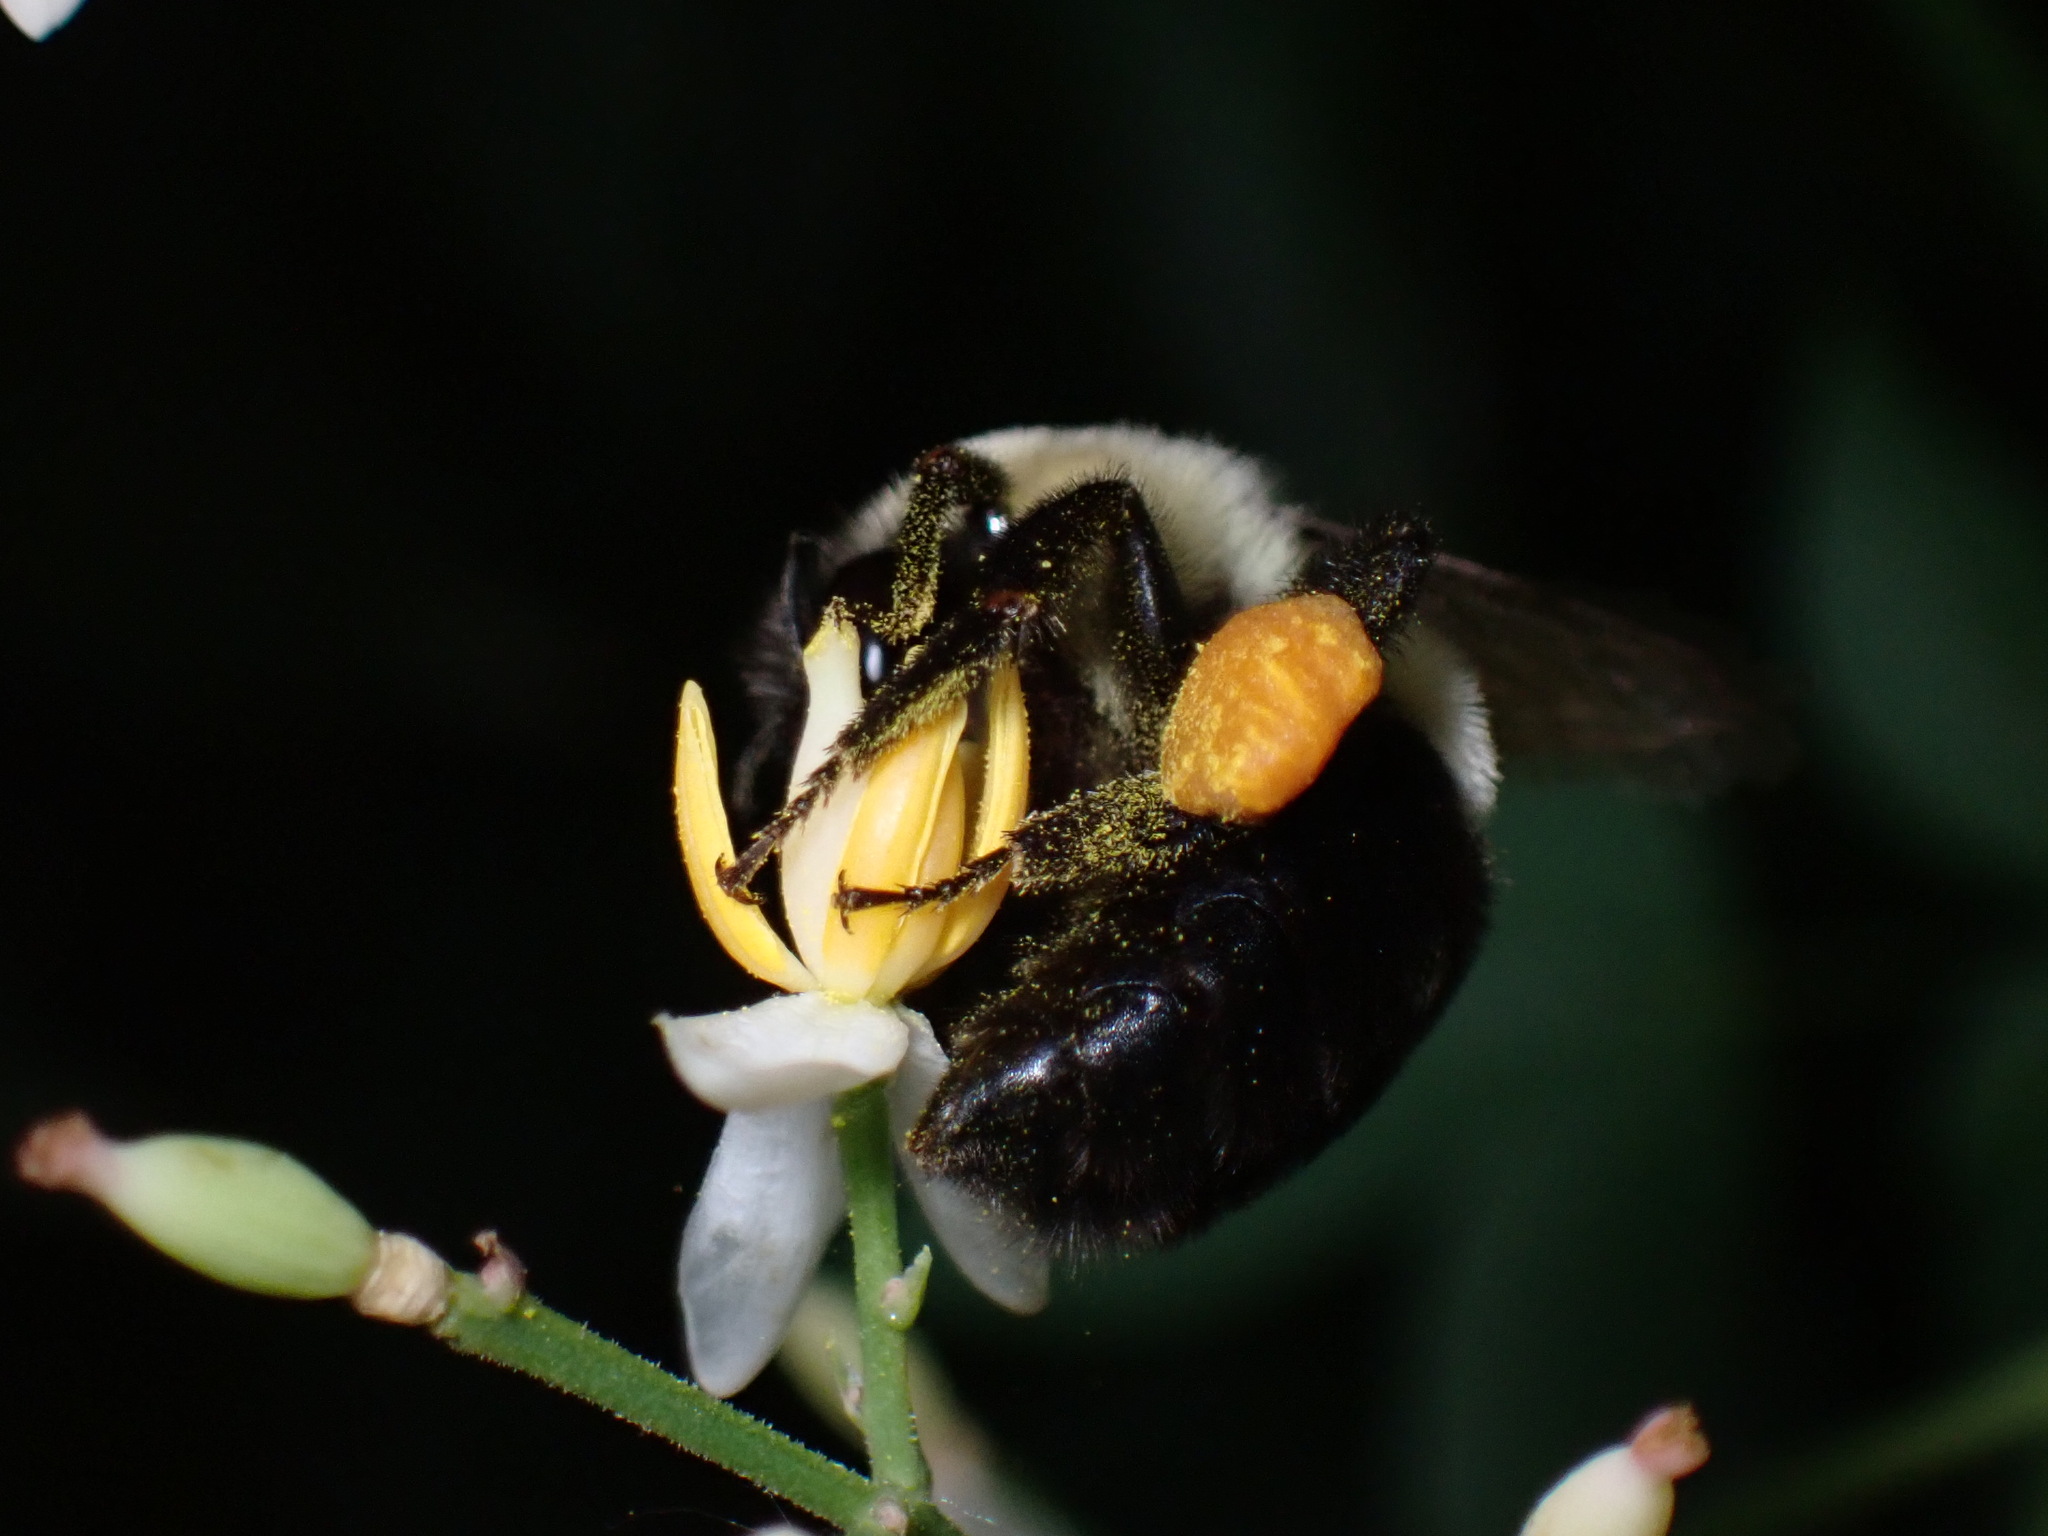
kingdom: Animalia
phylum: Arthropoda
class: Insecta
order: Hymenoptera
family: Apidae
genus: Bombus
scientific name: Bombus impatiens
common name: Common eastern bumble bee
